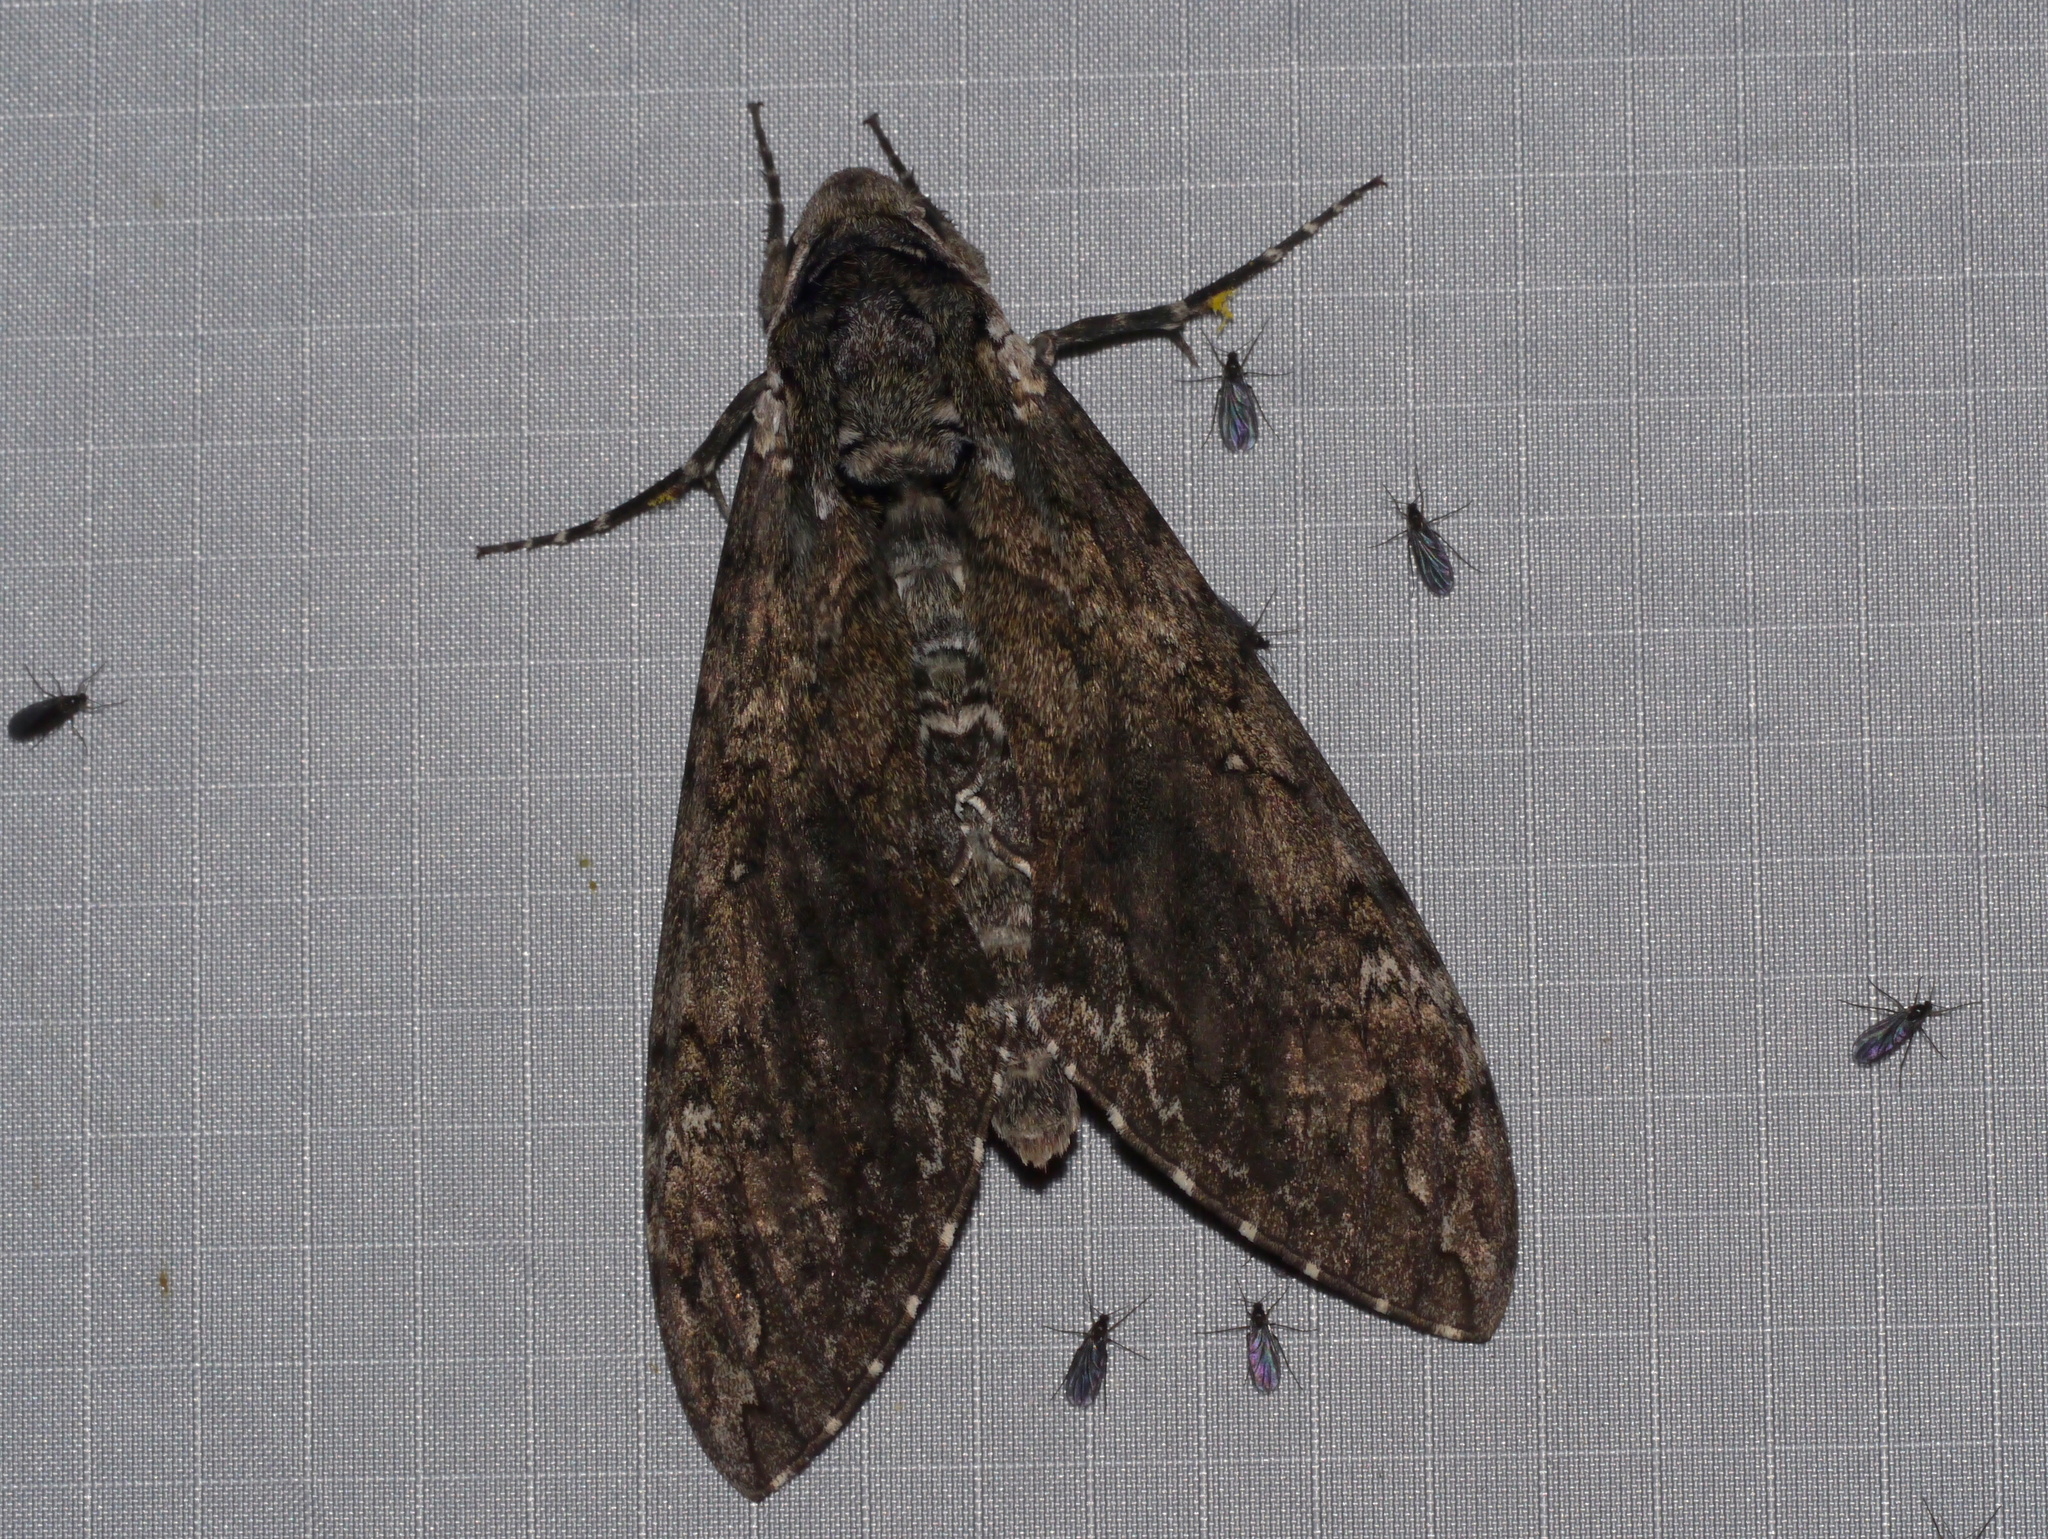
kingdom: Animalia
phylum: Arthropoda
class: Insecta
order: Lepidoptera
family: Sphingidae
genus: Manduca
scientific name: Manduca sexta
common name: Carolina sphinx
